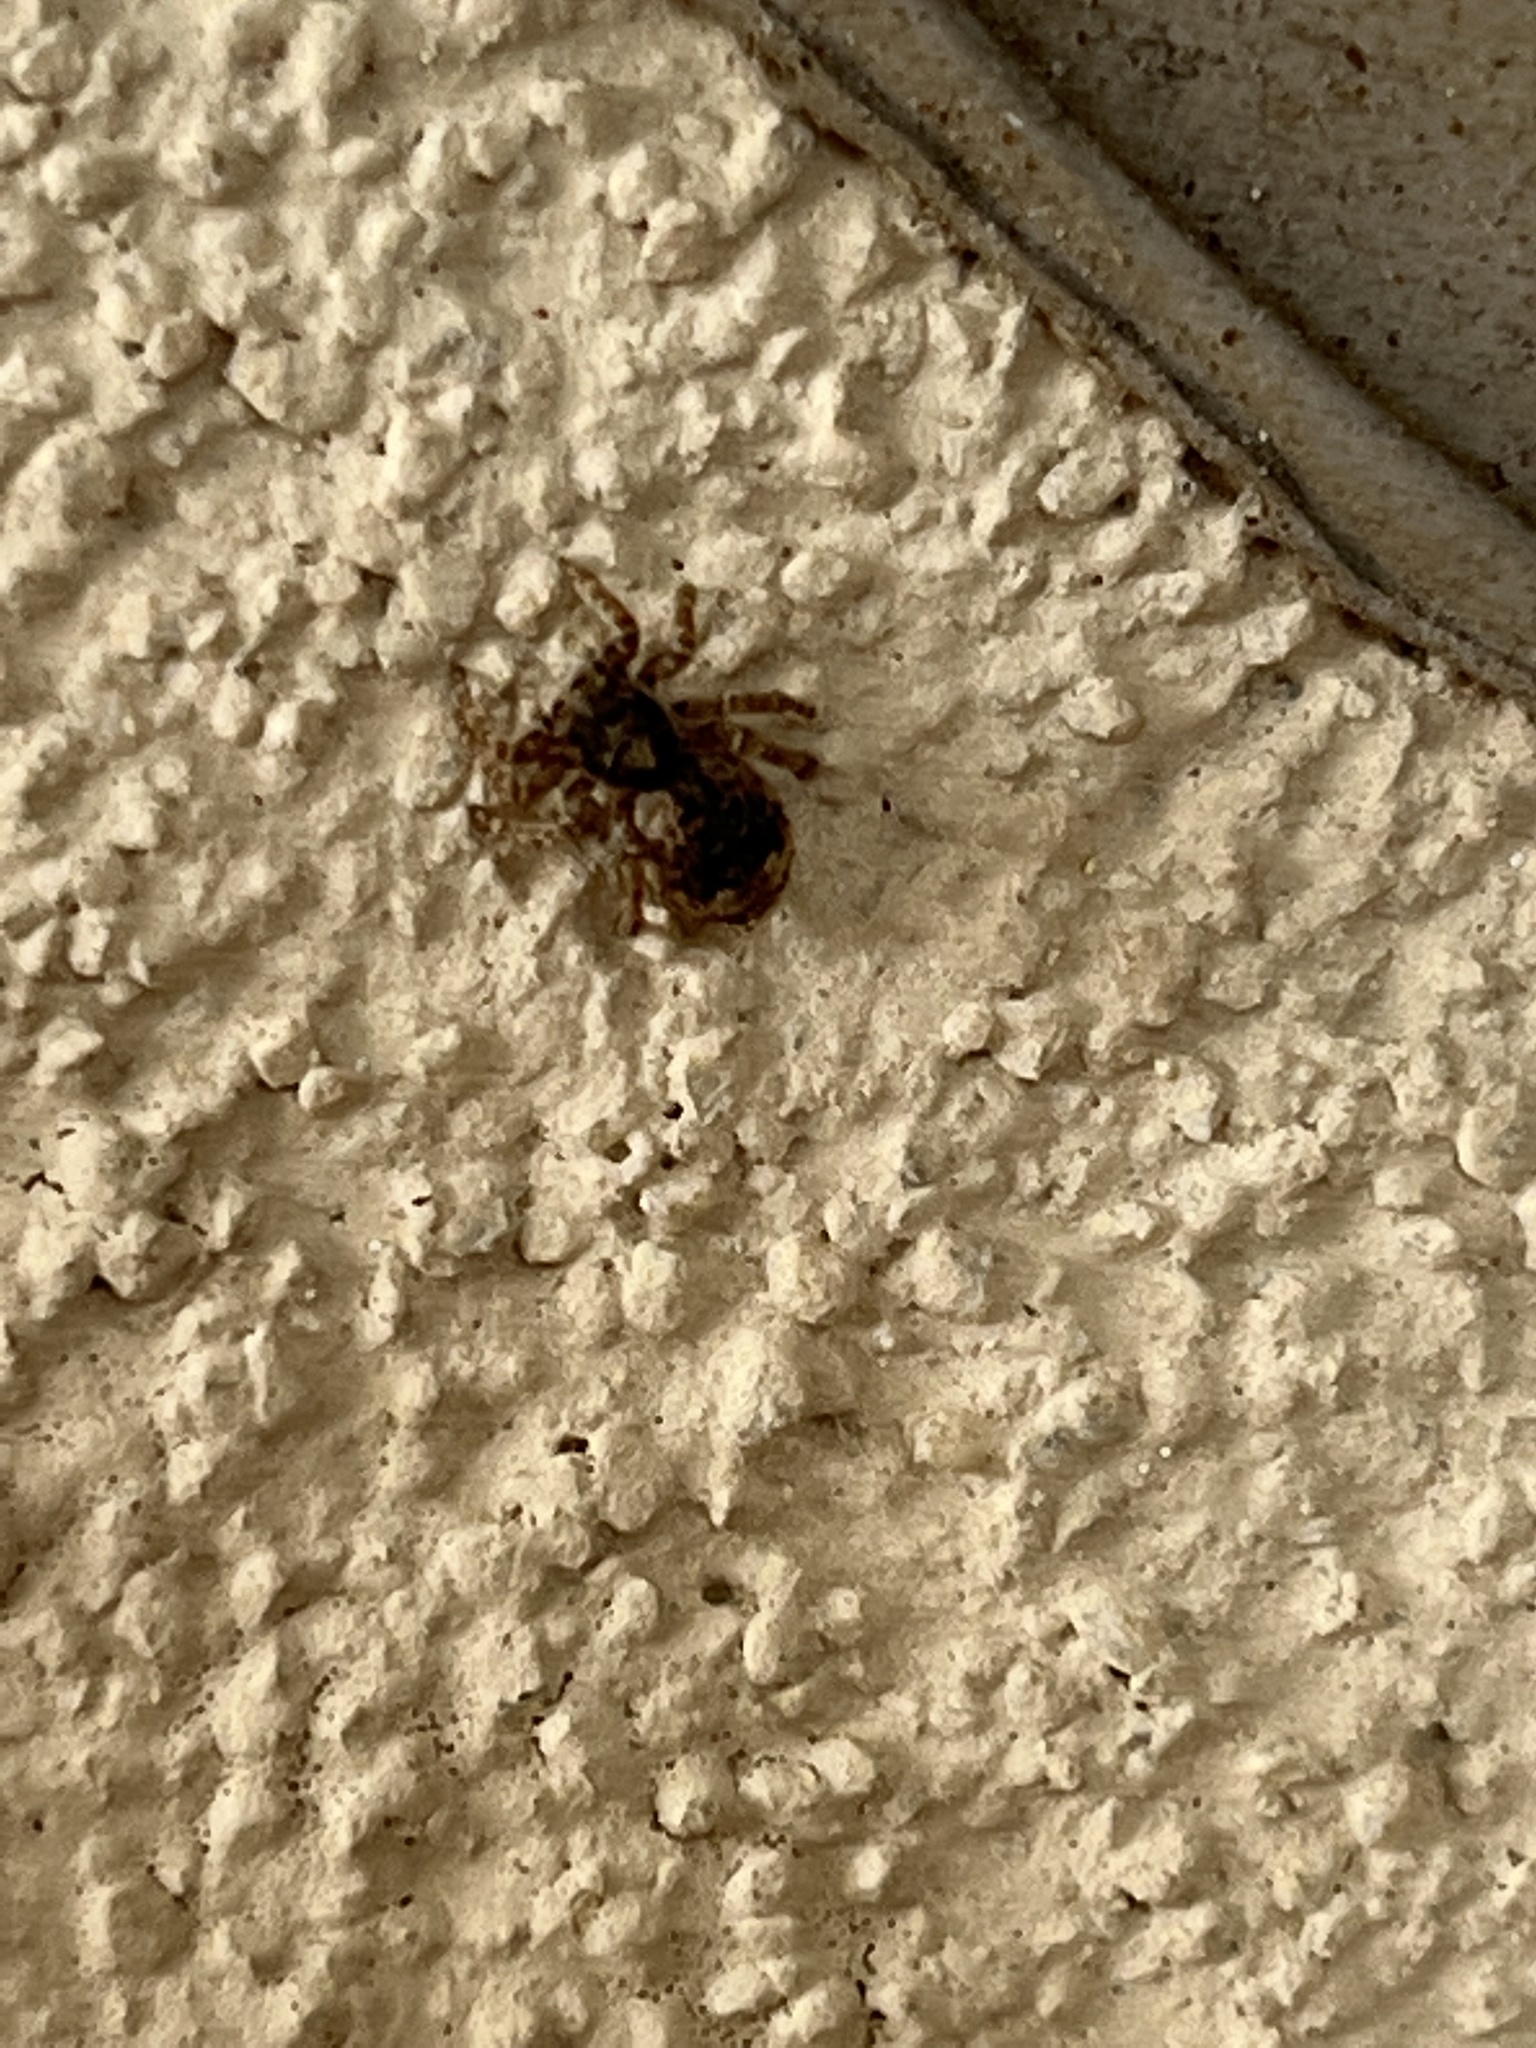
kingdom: Animalia
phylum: Arthropoda
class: Arachnida
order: Araneae
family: Salticidae
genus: Attulus
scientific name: Attulus fasciger
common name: Asiatic wall jumping spider
